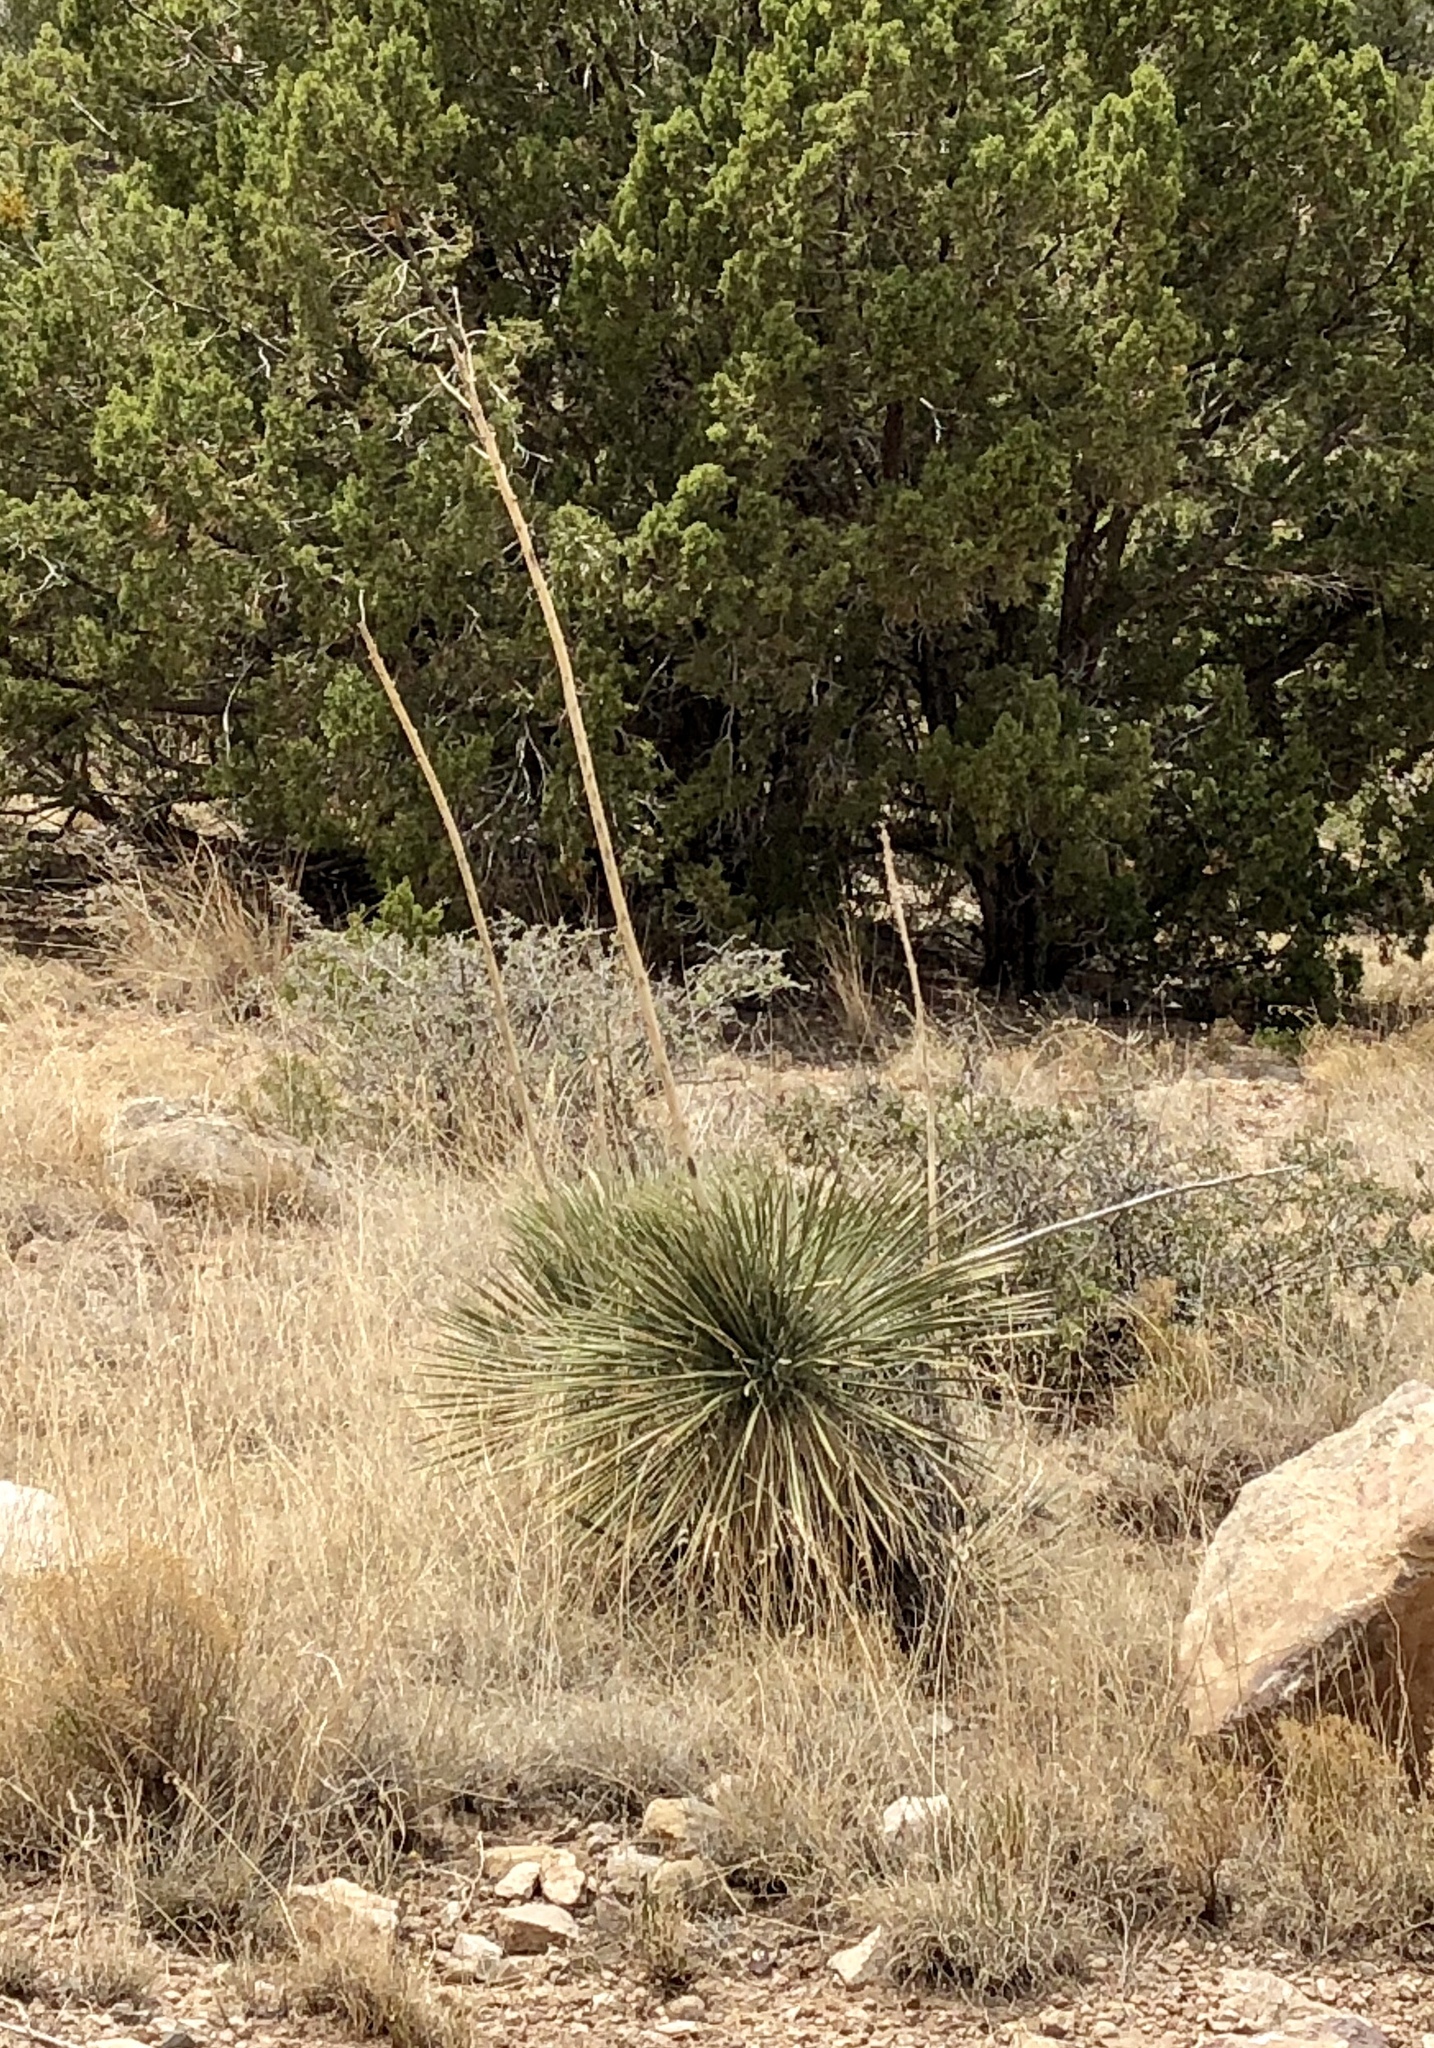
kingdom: Plantae
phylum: Tracheophyta
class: Liliopsida
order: Asparagales
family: Asparagaceae
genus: Yucca
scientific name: Yucca elata
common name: Palmella
